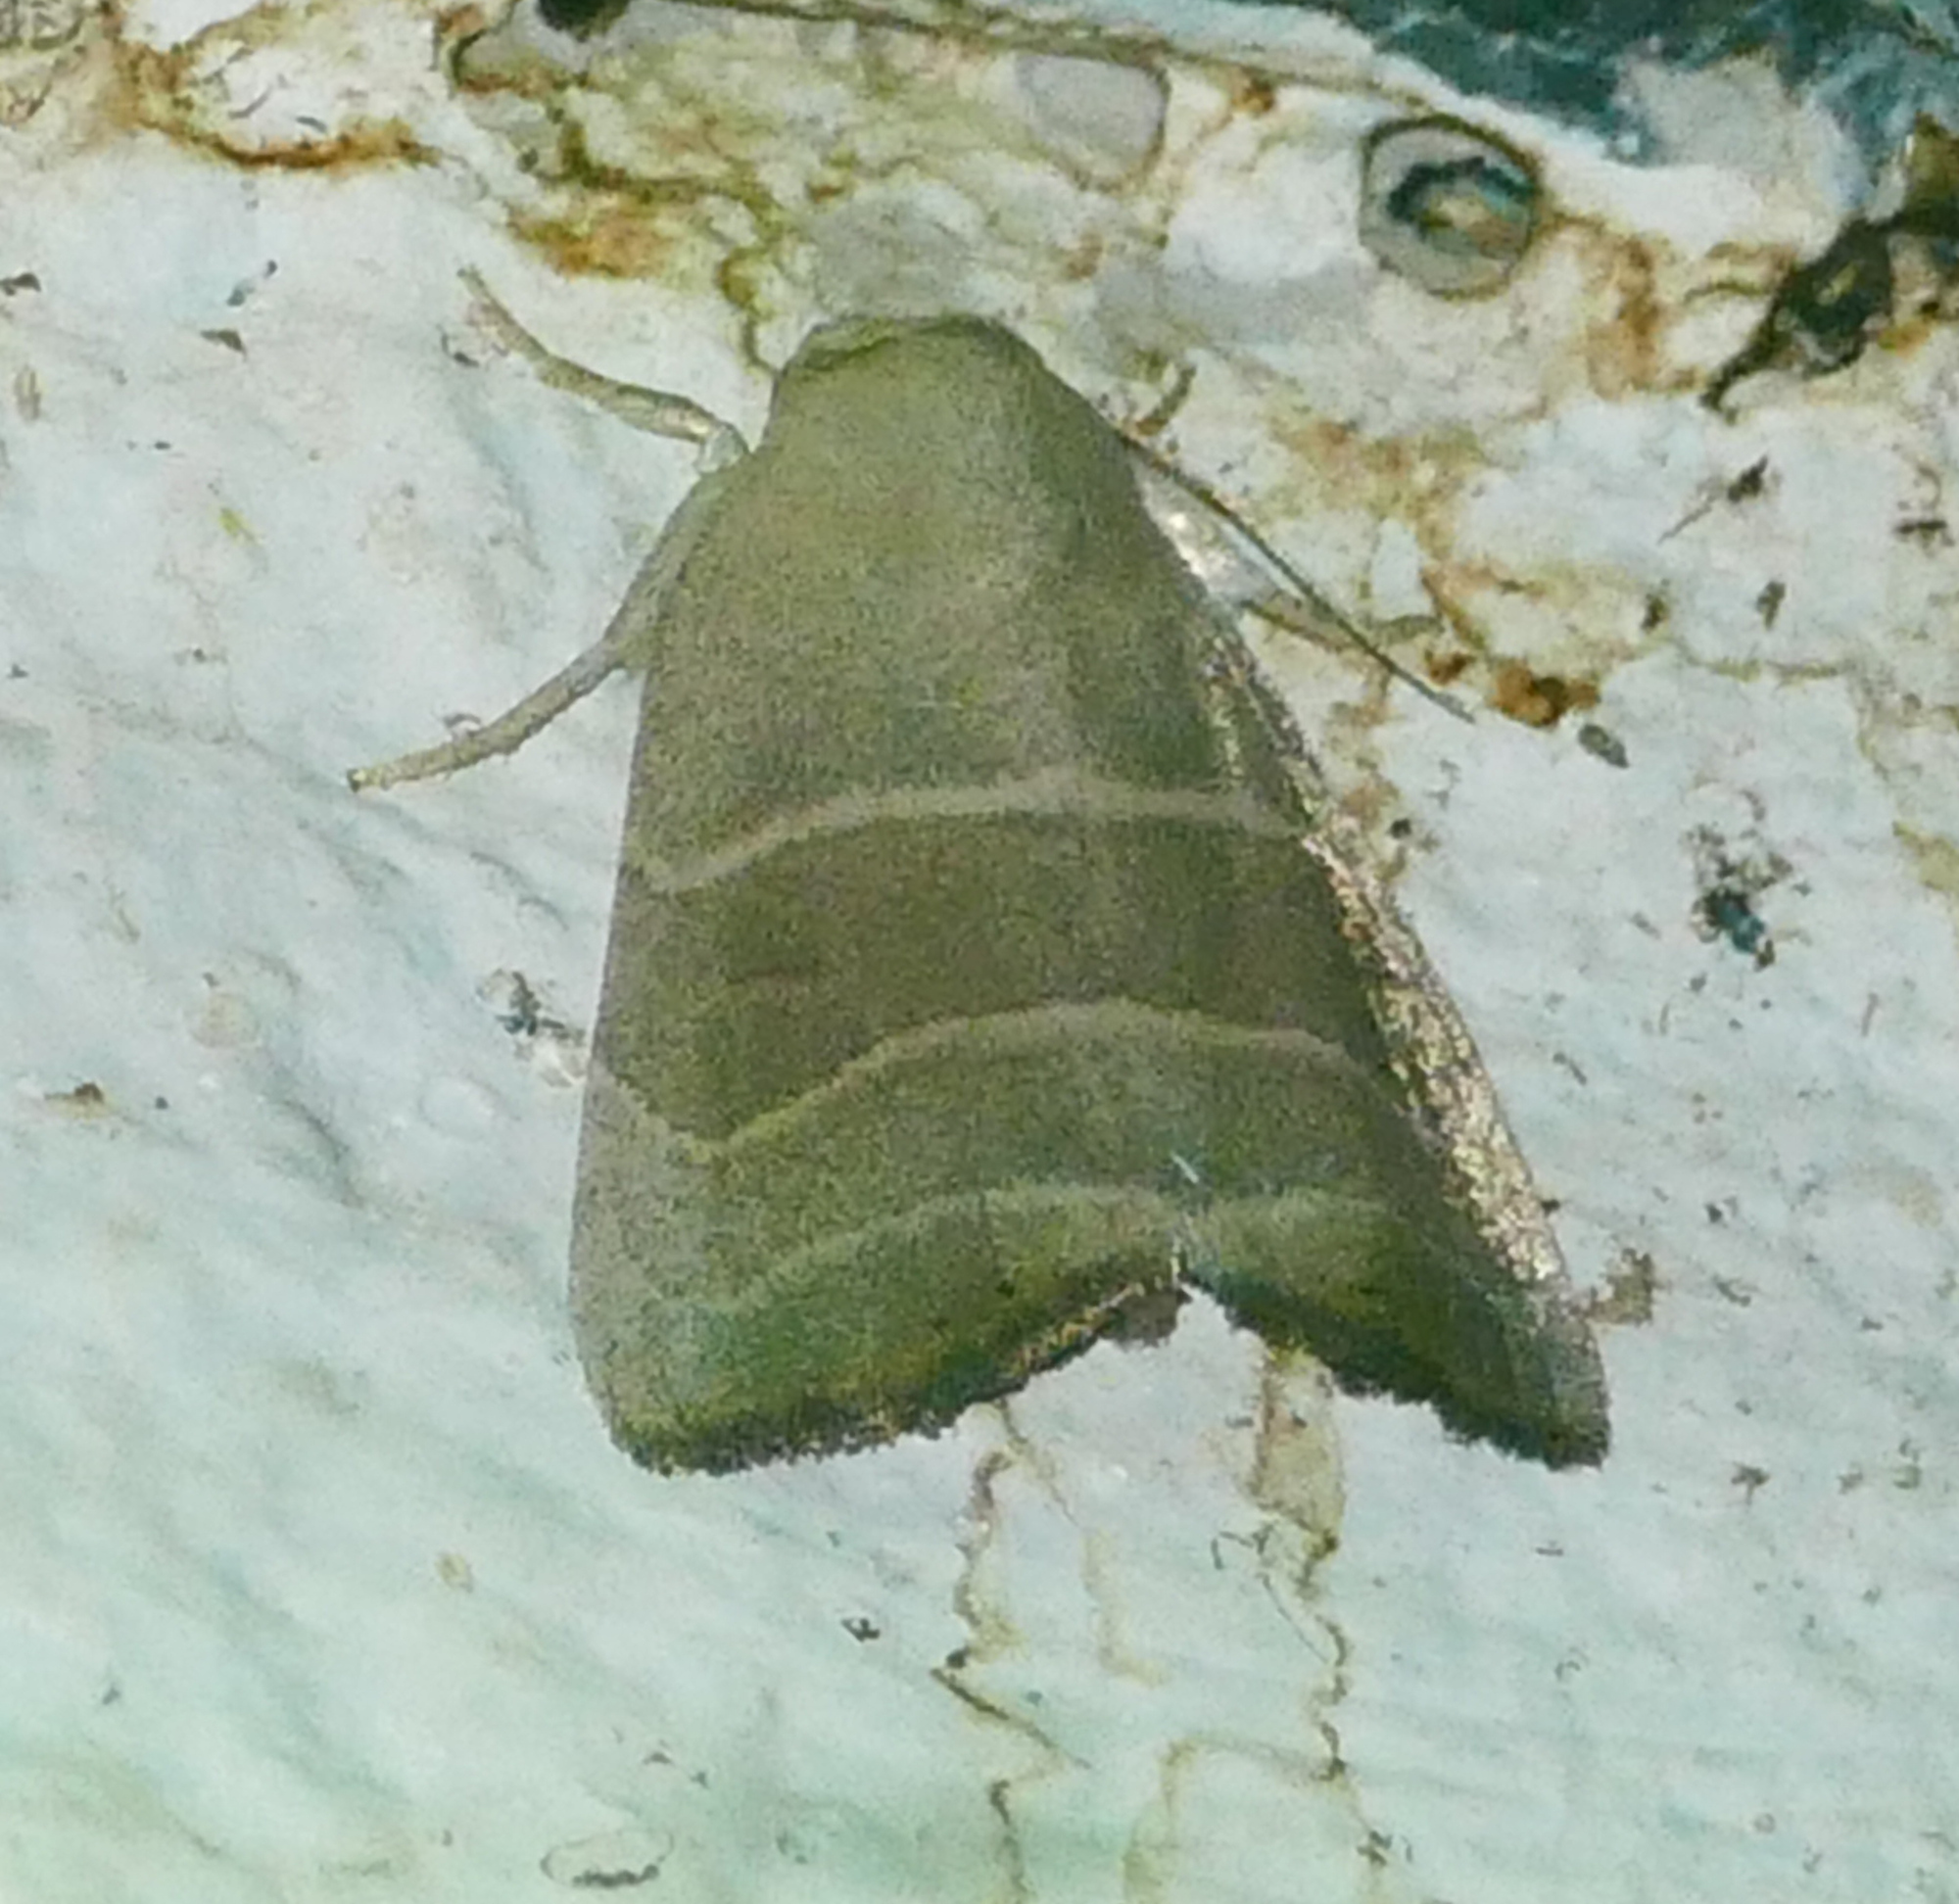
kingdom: Animalia
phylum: Arthropoda
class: Insecta
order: Lepidoptera
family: Noctuidae
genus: Bagisara
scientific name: Bagisara rectifascia
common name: Straight lined mallow moth
